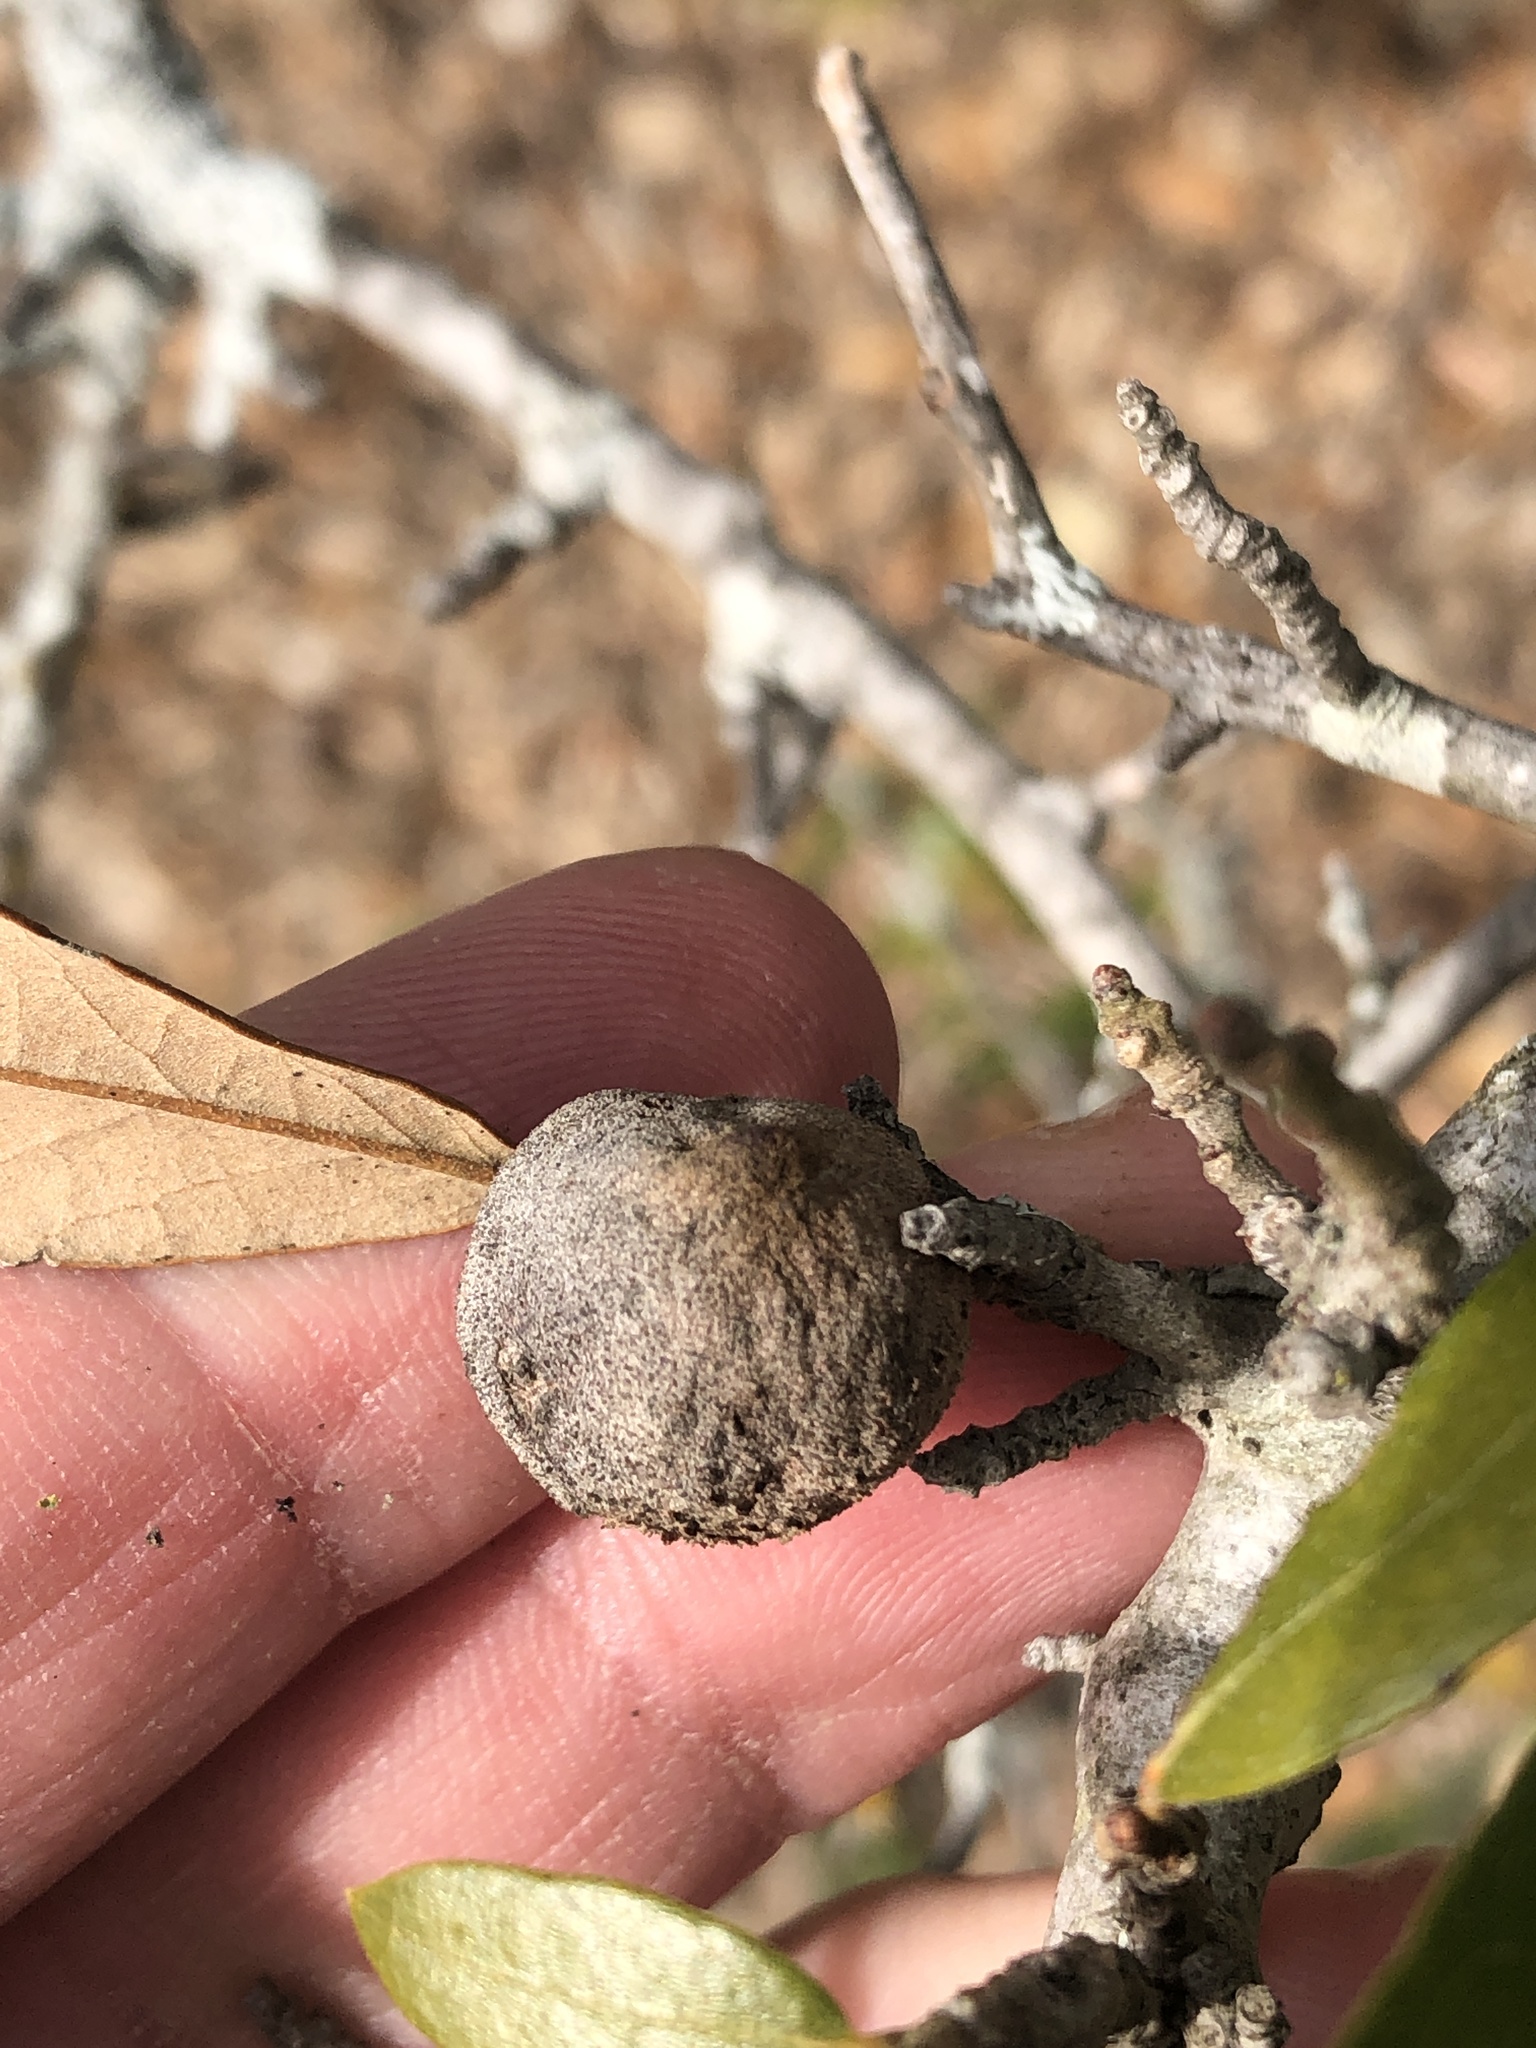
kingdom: Animalia
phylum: Arthropoda
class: Insecta
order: Hymenoptera
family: Cynipidae
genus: Disholcaspis
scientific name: Disholcaspis
